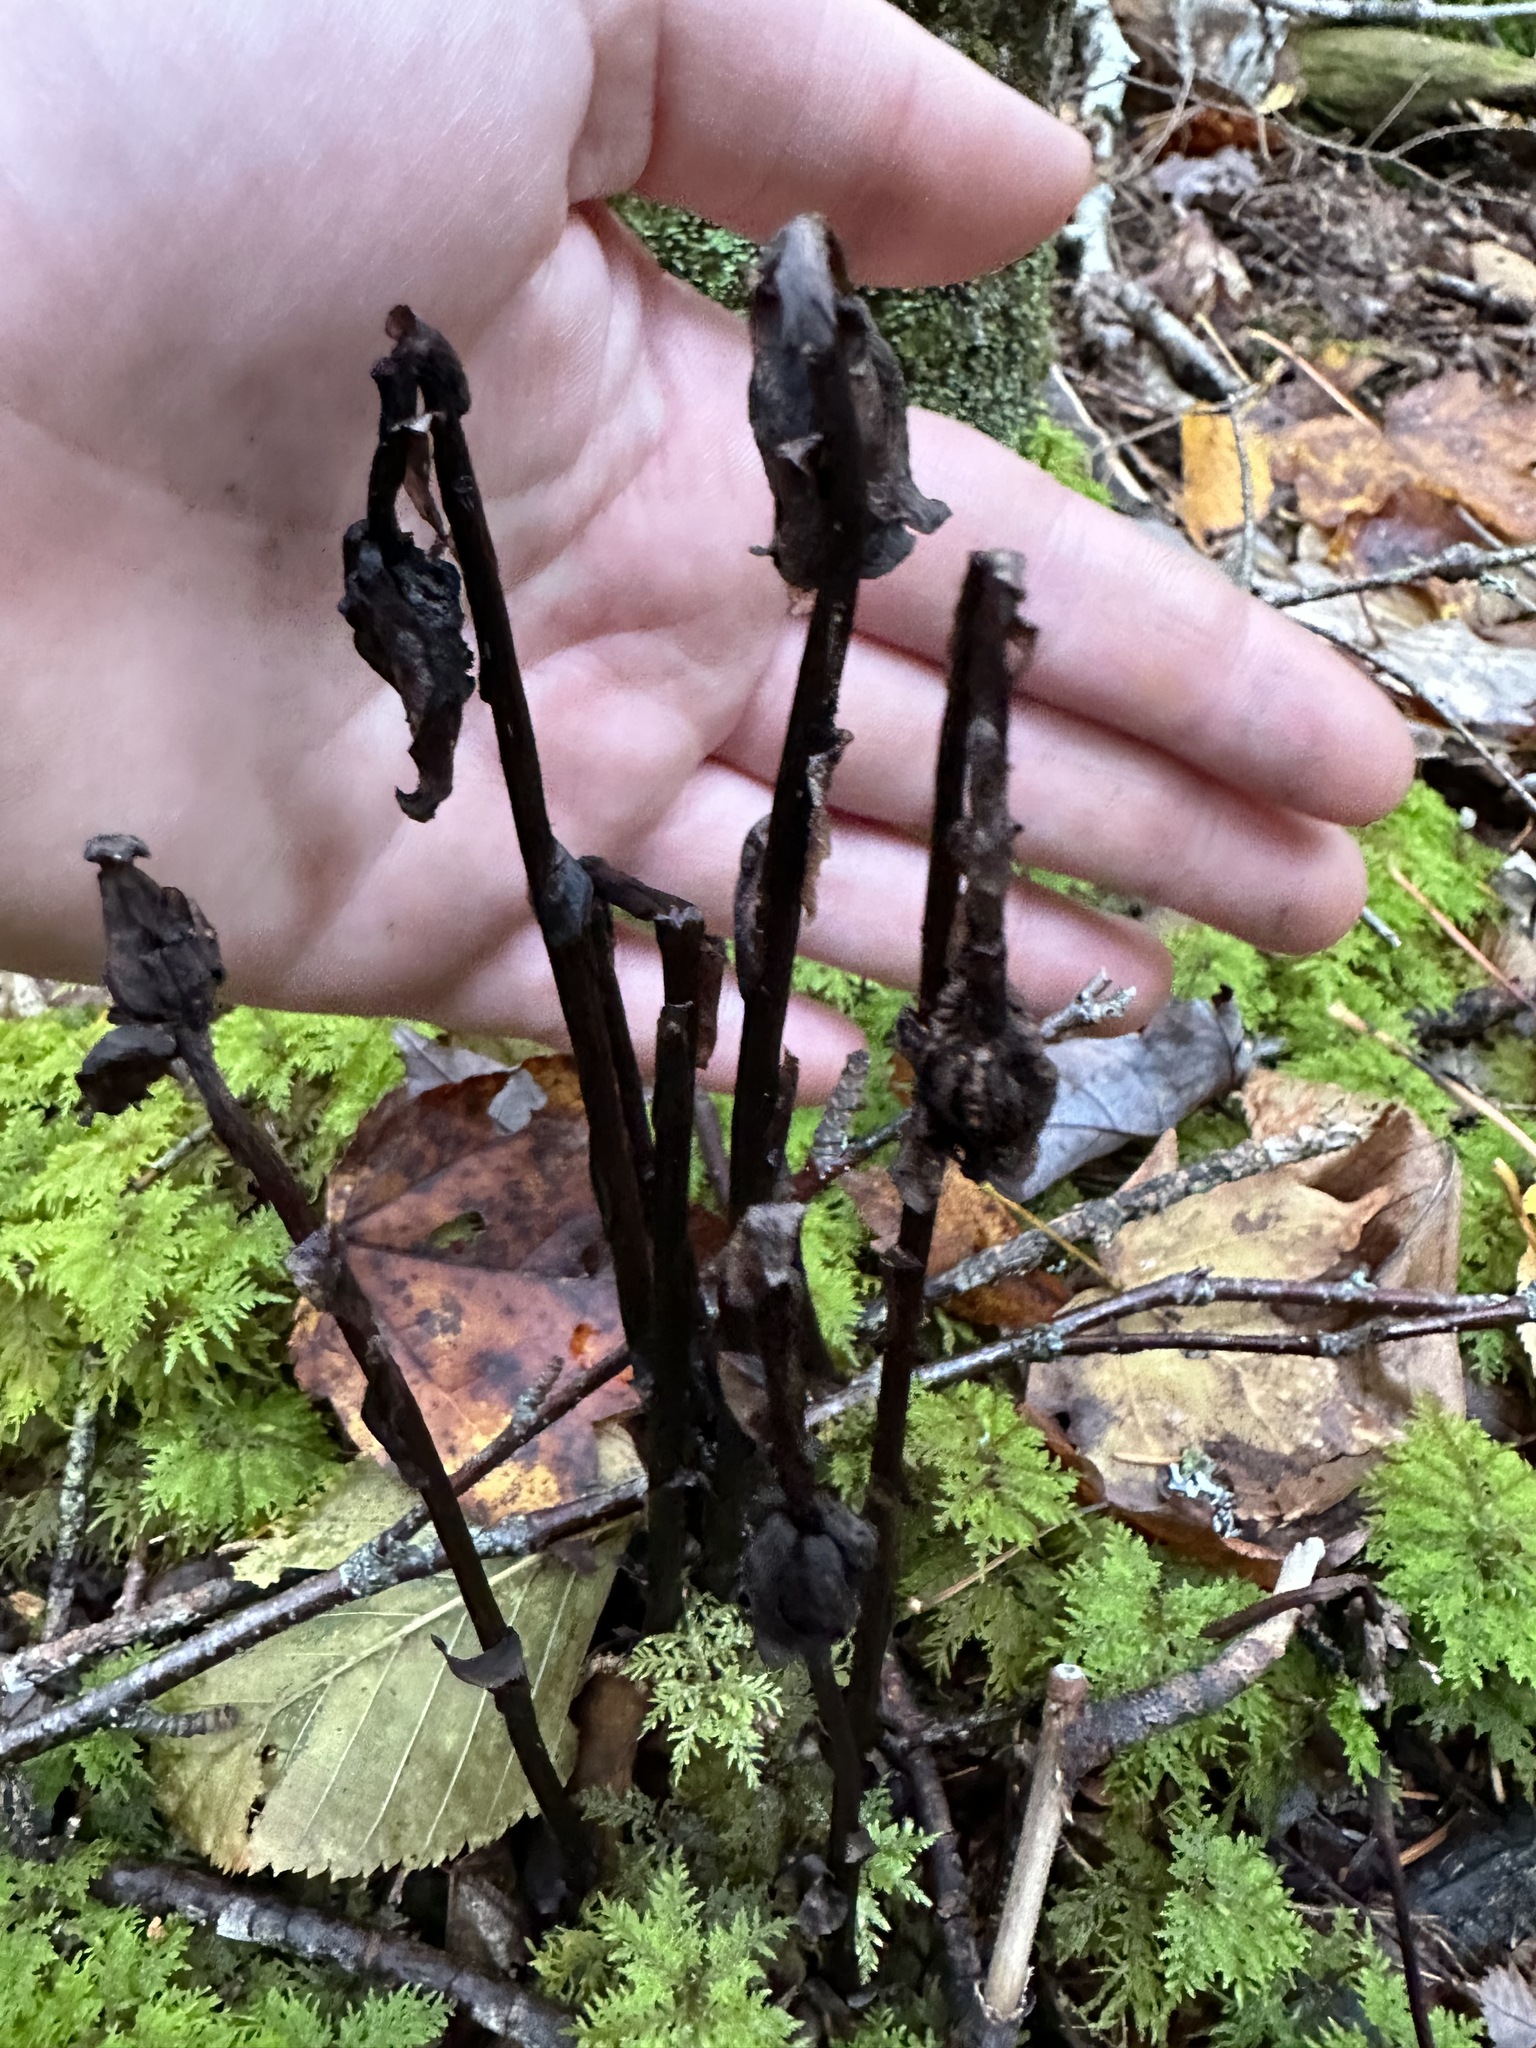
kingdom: Plantae
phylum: Tracheophyta
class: Magnoliopsida
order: Ericales
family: Ericaceae
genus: Monotropa
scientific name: Monotropa uniflora
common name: Convulsion root
